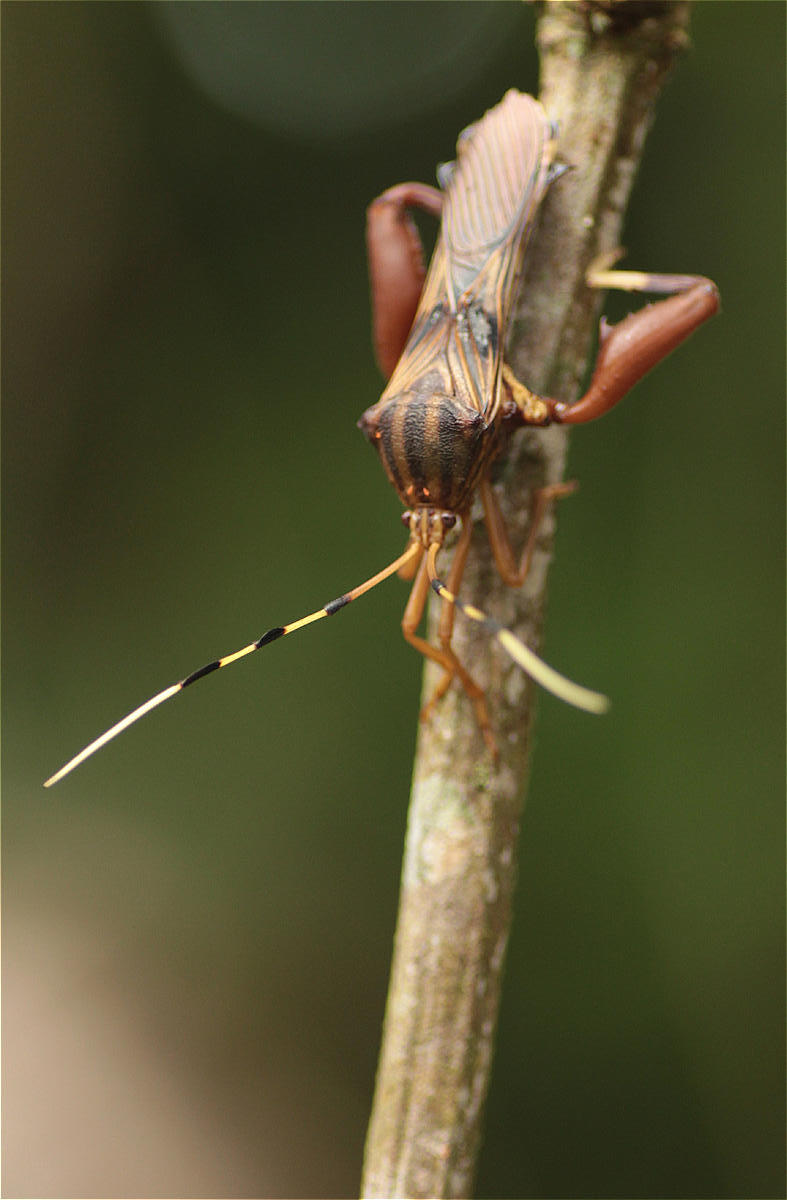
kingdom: Animalia
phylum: Arthropoda
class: Insecta
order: Hemiptera
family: Coreidae
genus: Spathophora
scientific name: Spathophora biclavata
